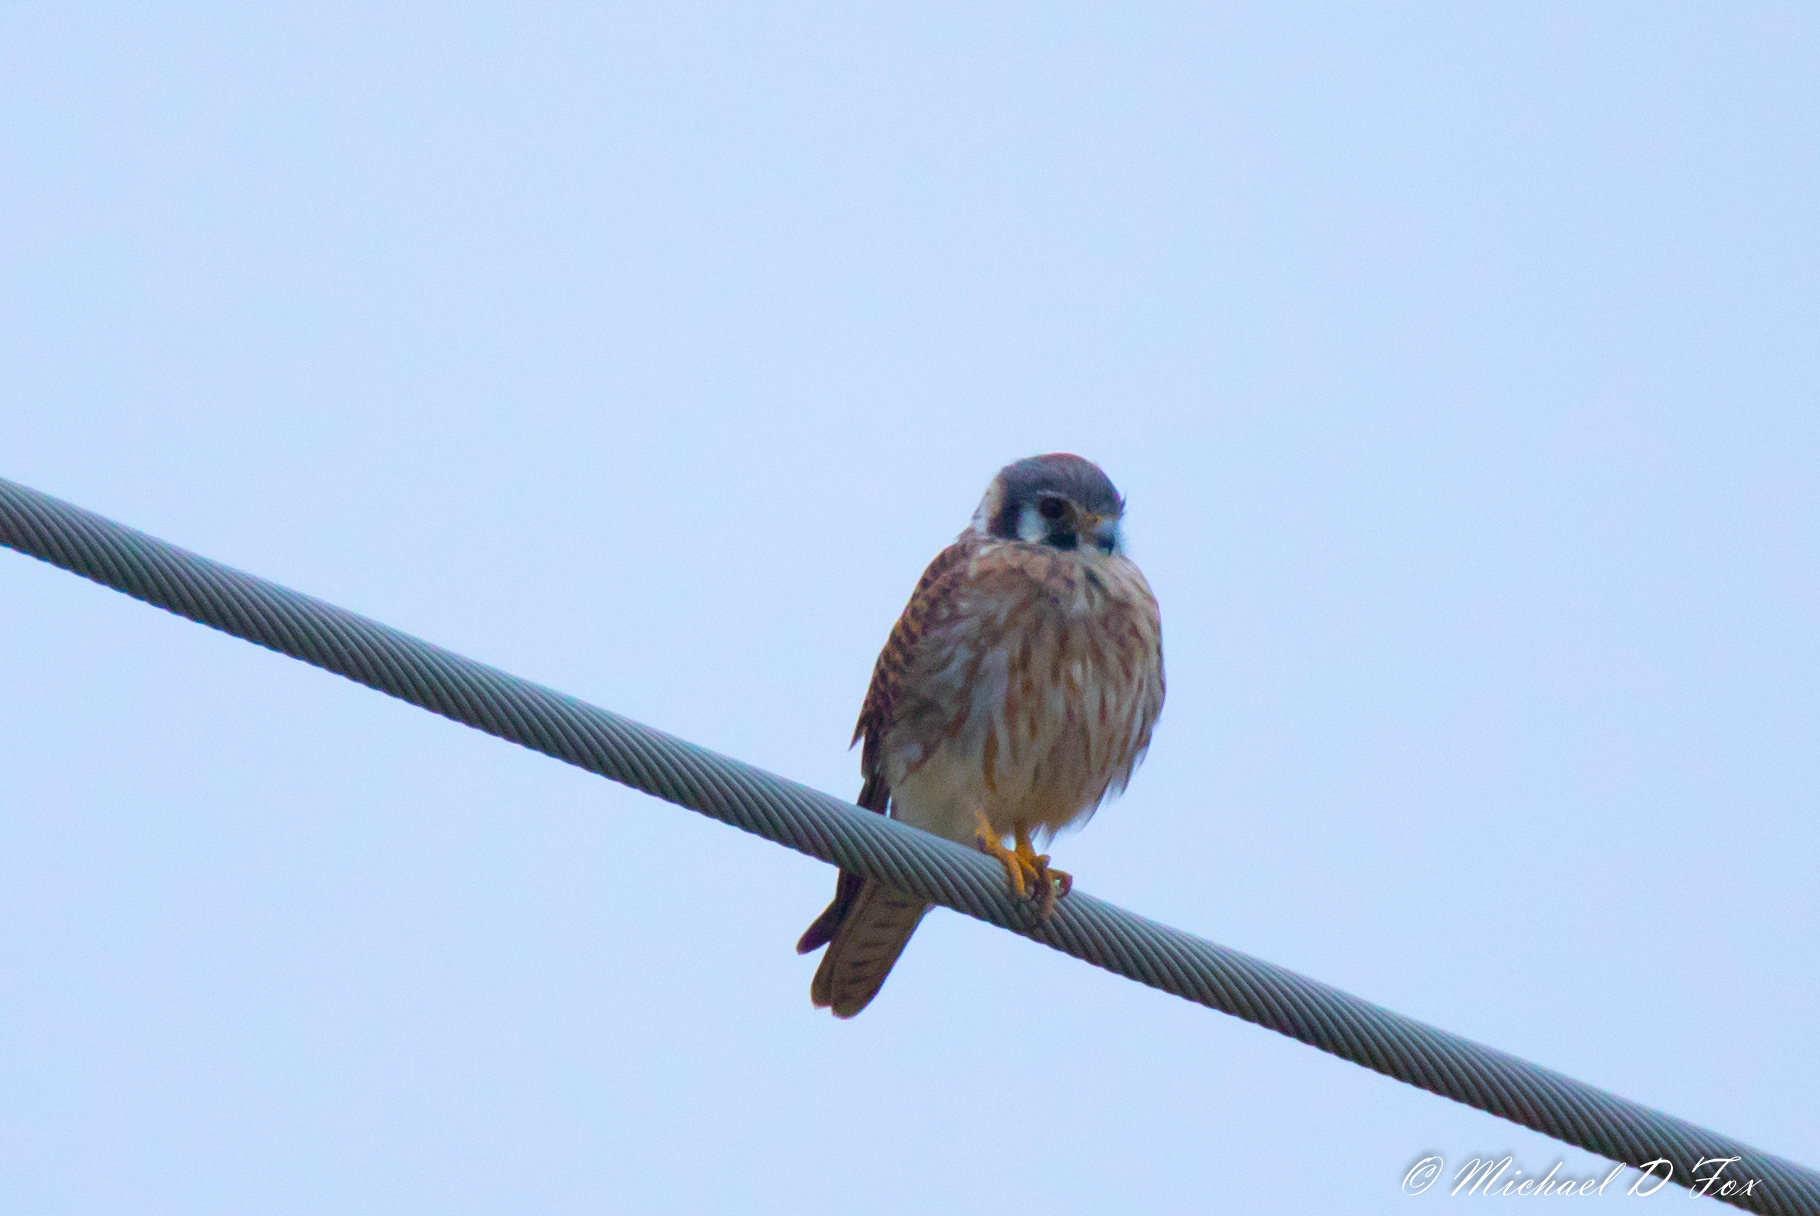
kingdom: Animalia
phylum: Chordata
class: Aves
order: Falconiformes
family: Falconidae
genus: Falco
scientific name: Falco sparverius
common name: American kestrel
